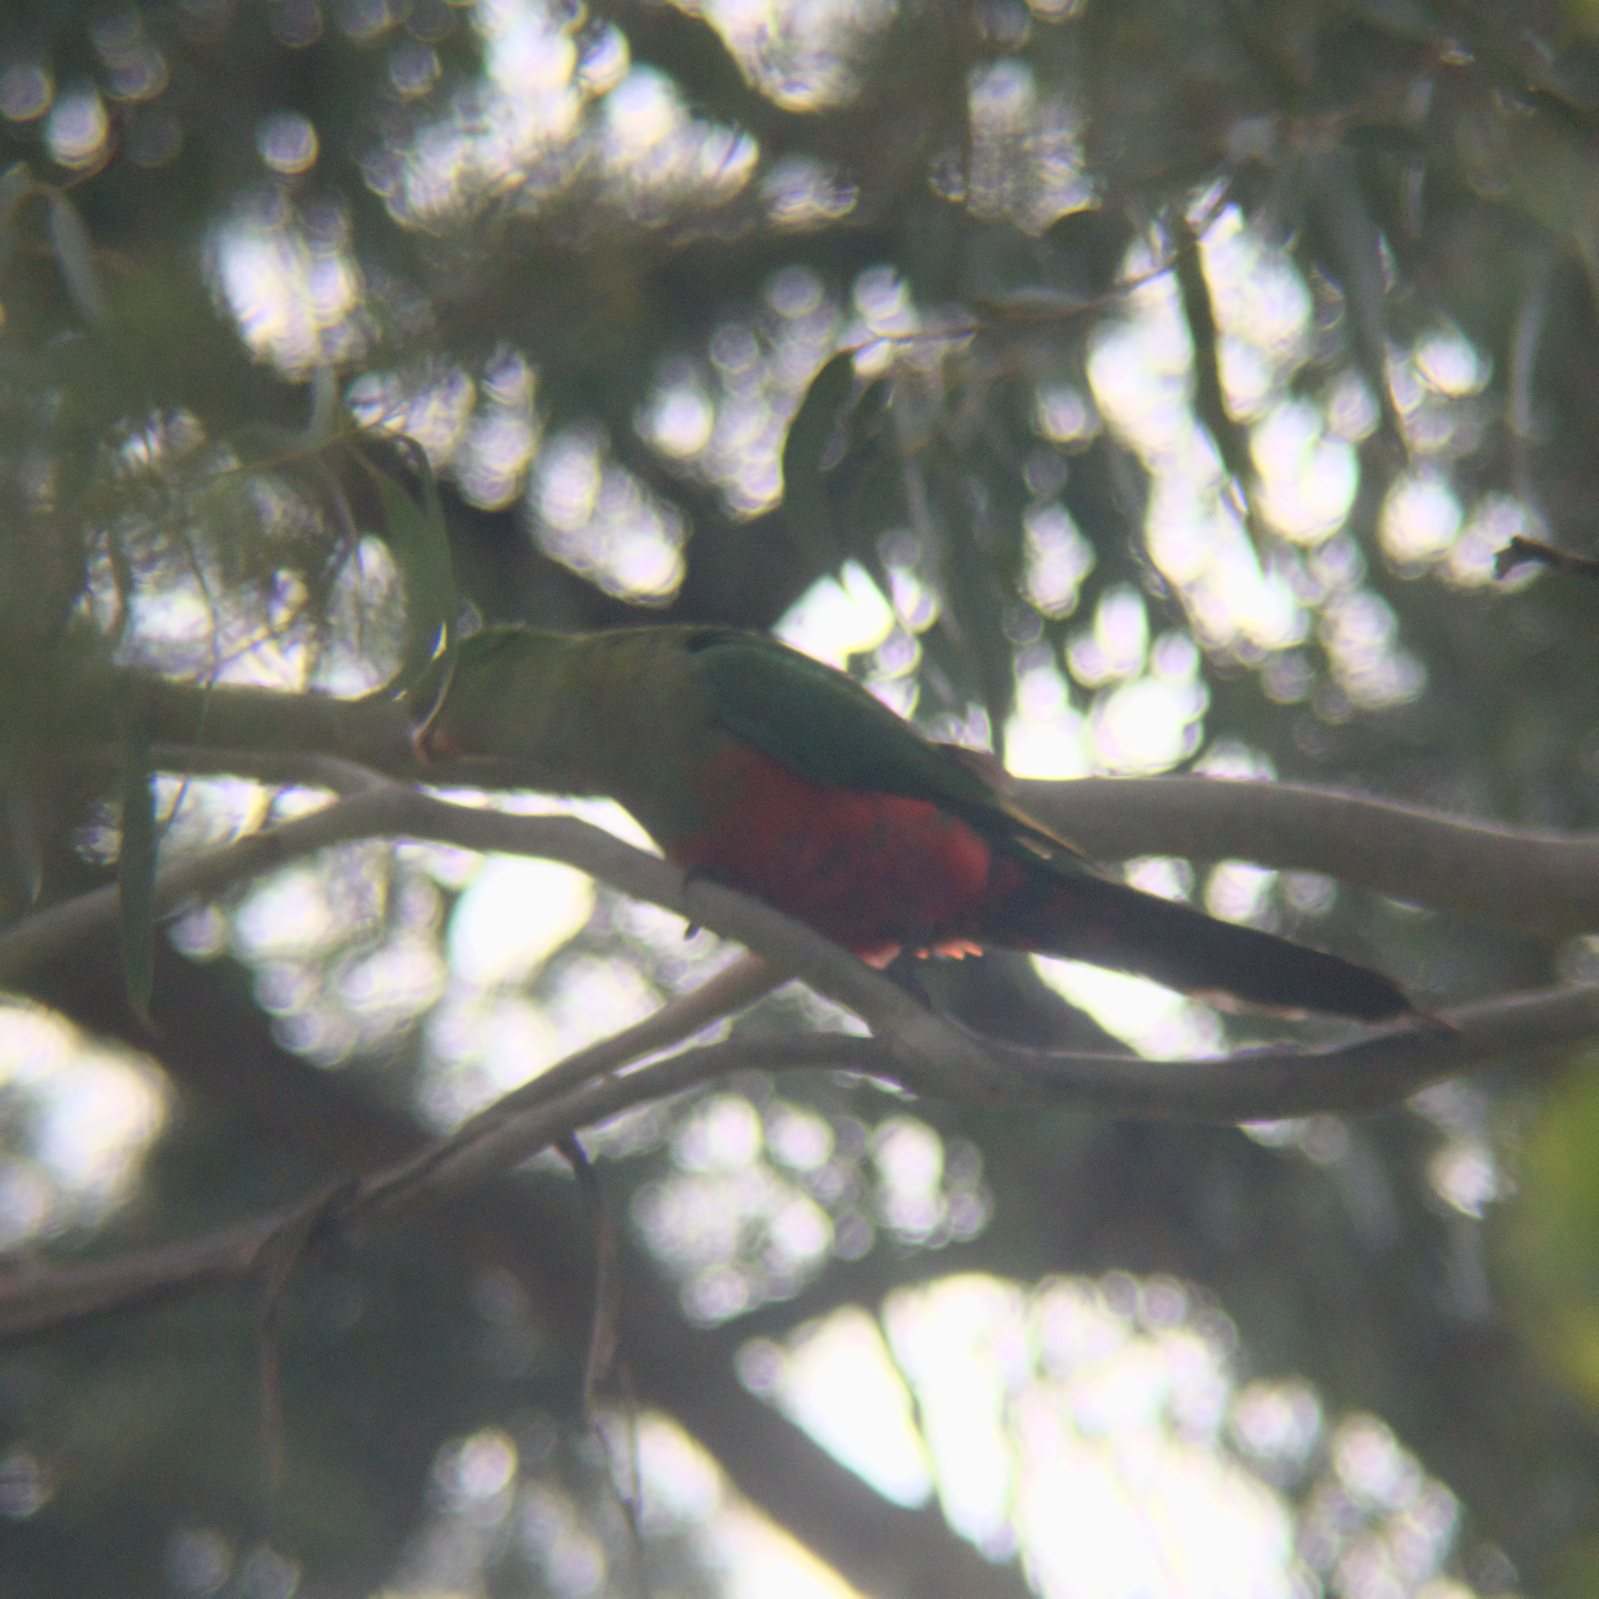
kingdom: Animalia
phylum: Chordata
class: Aves
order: Psittaciformes
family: Psittacidae
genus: Alisterus
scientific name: Alisterus scapularis
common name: Australian king parrot
